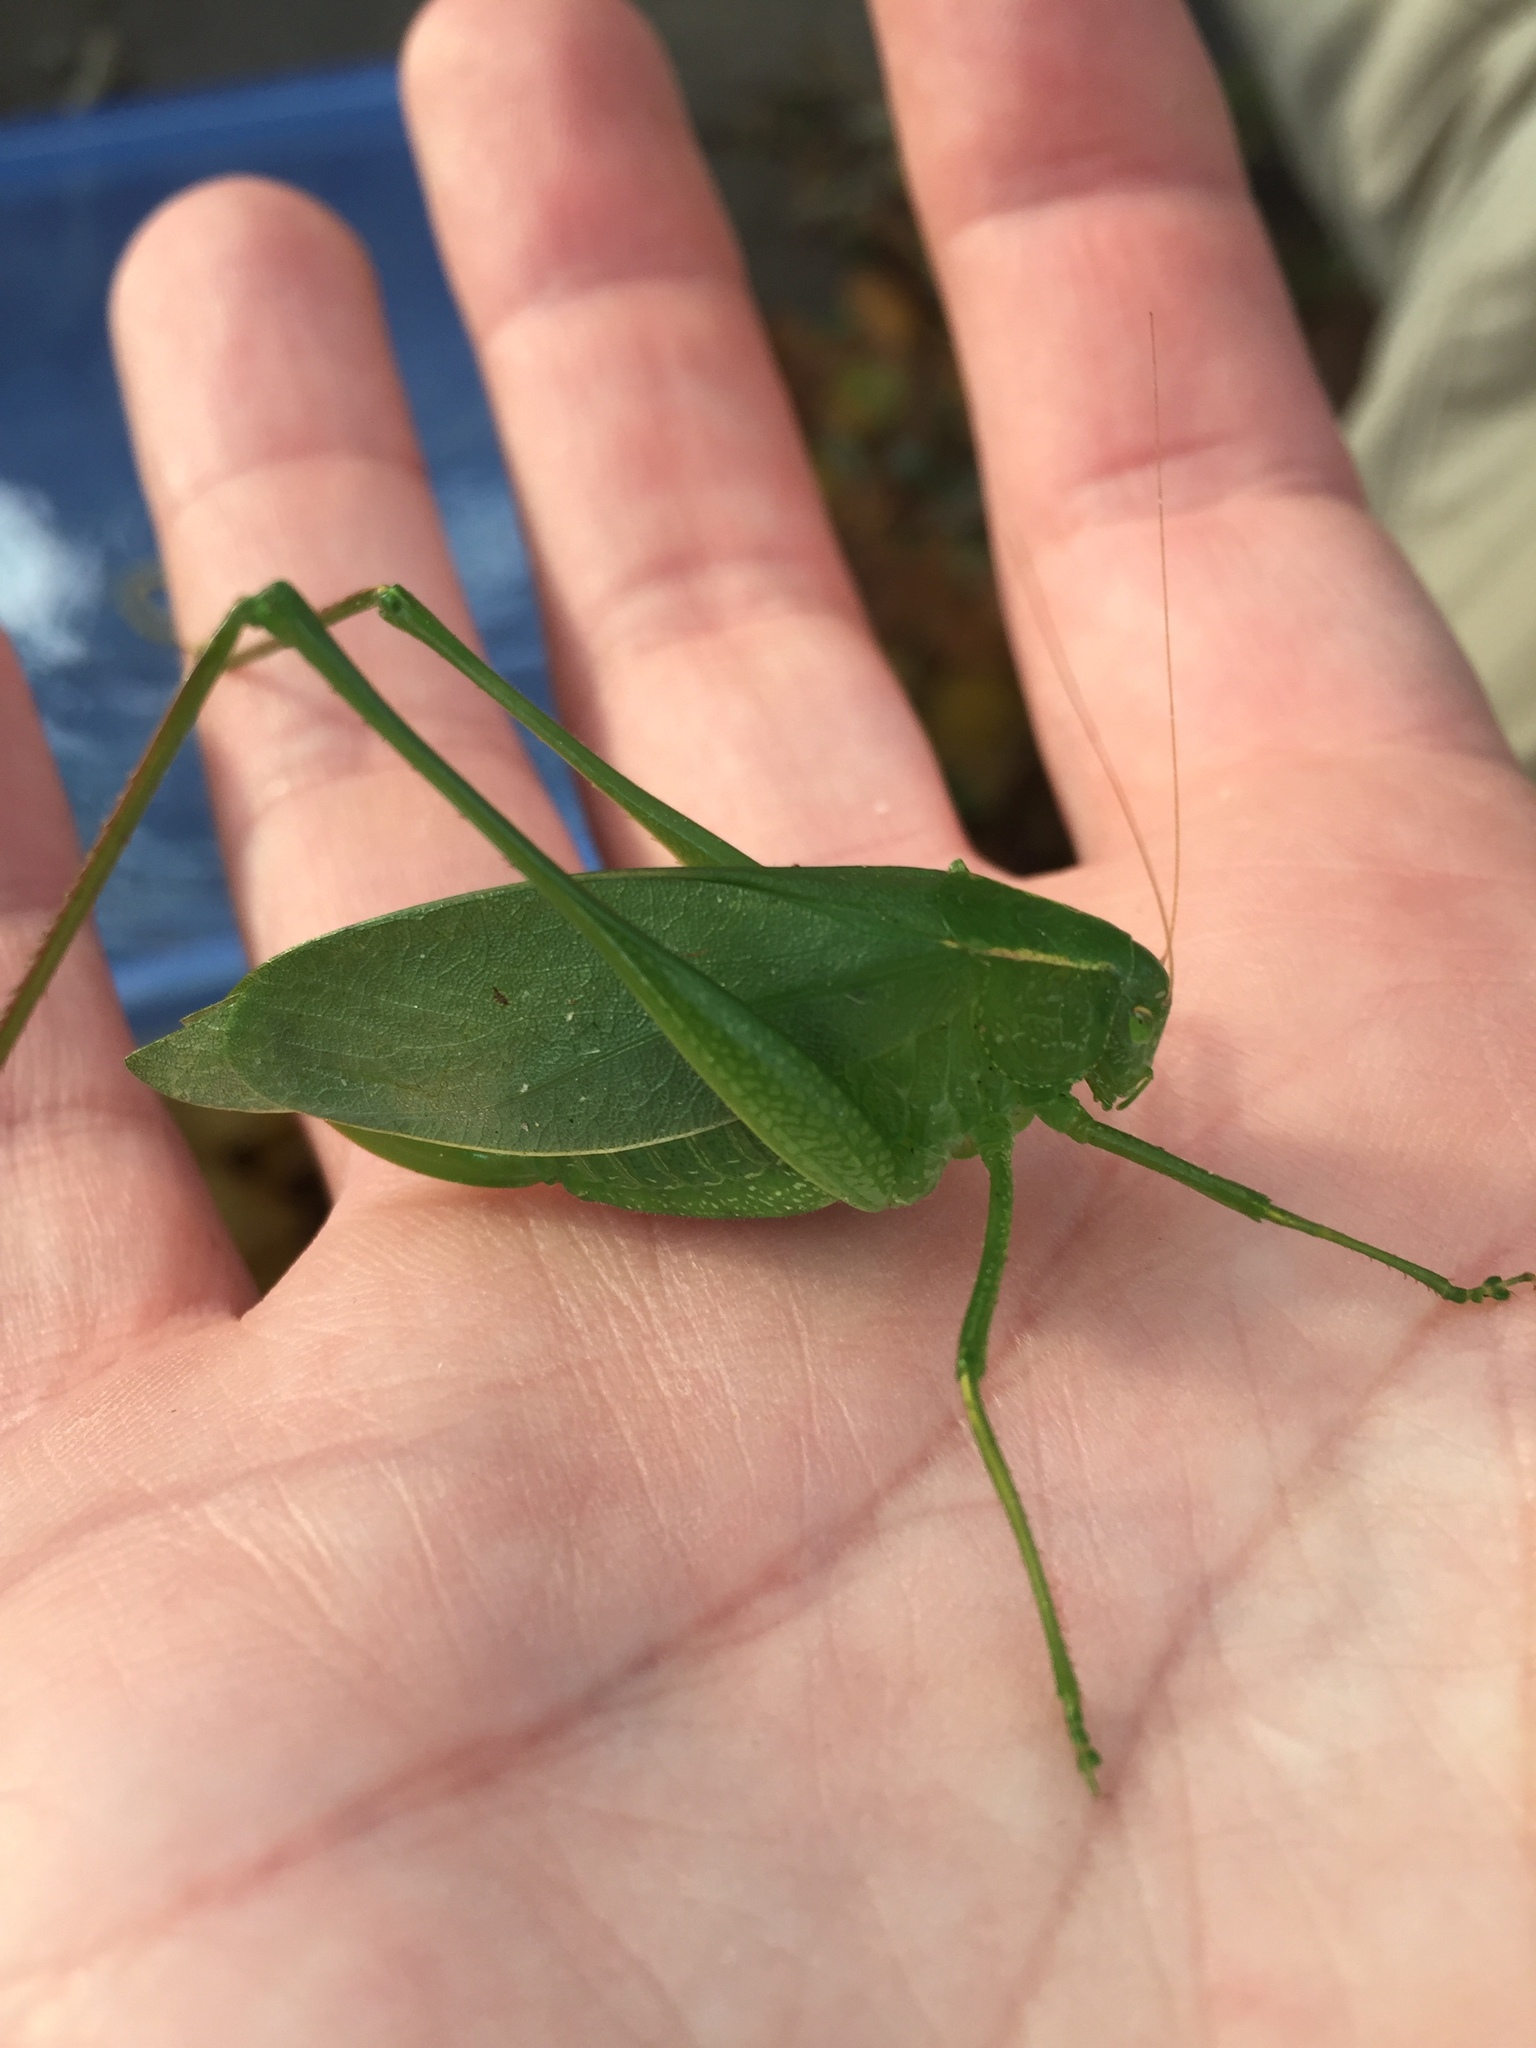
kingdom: Animalia
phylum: Arthropoda
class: Insecta
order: Orthoptera
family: Tettigoniidae
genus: Amblycorypha
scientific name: Amblycorypha rotundifolia
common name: Rattler round-winged katydid
